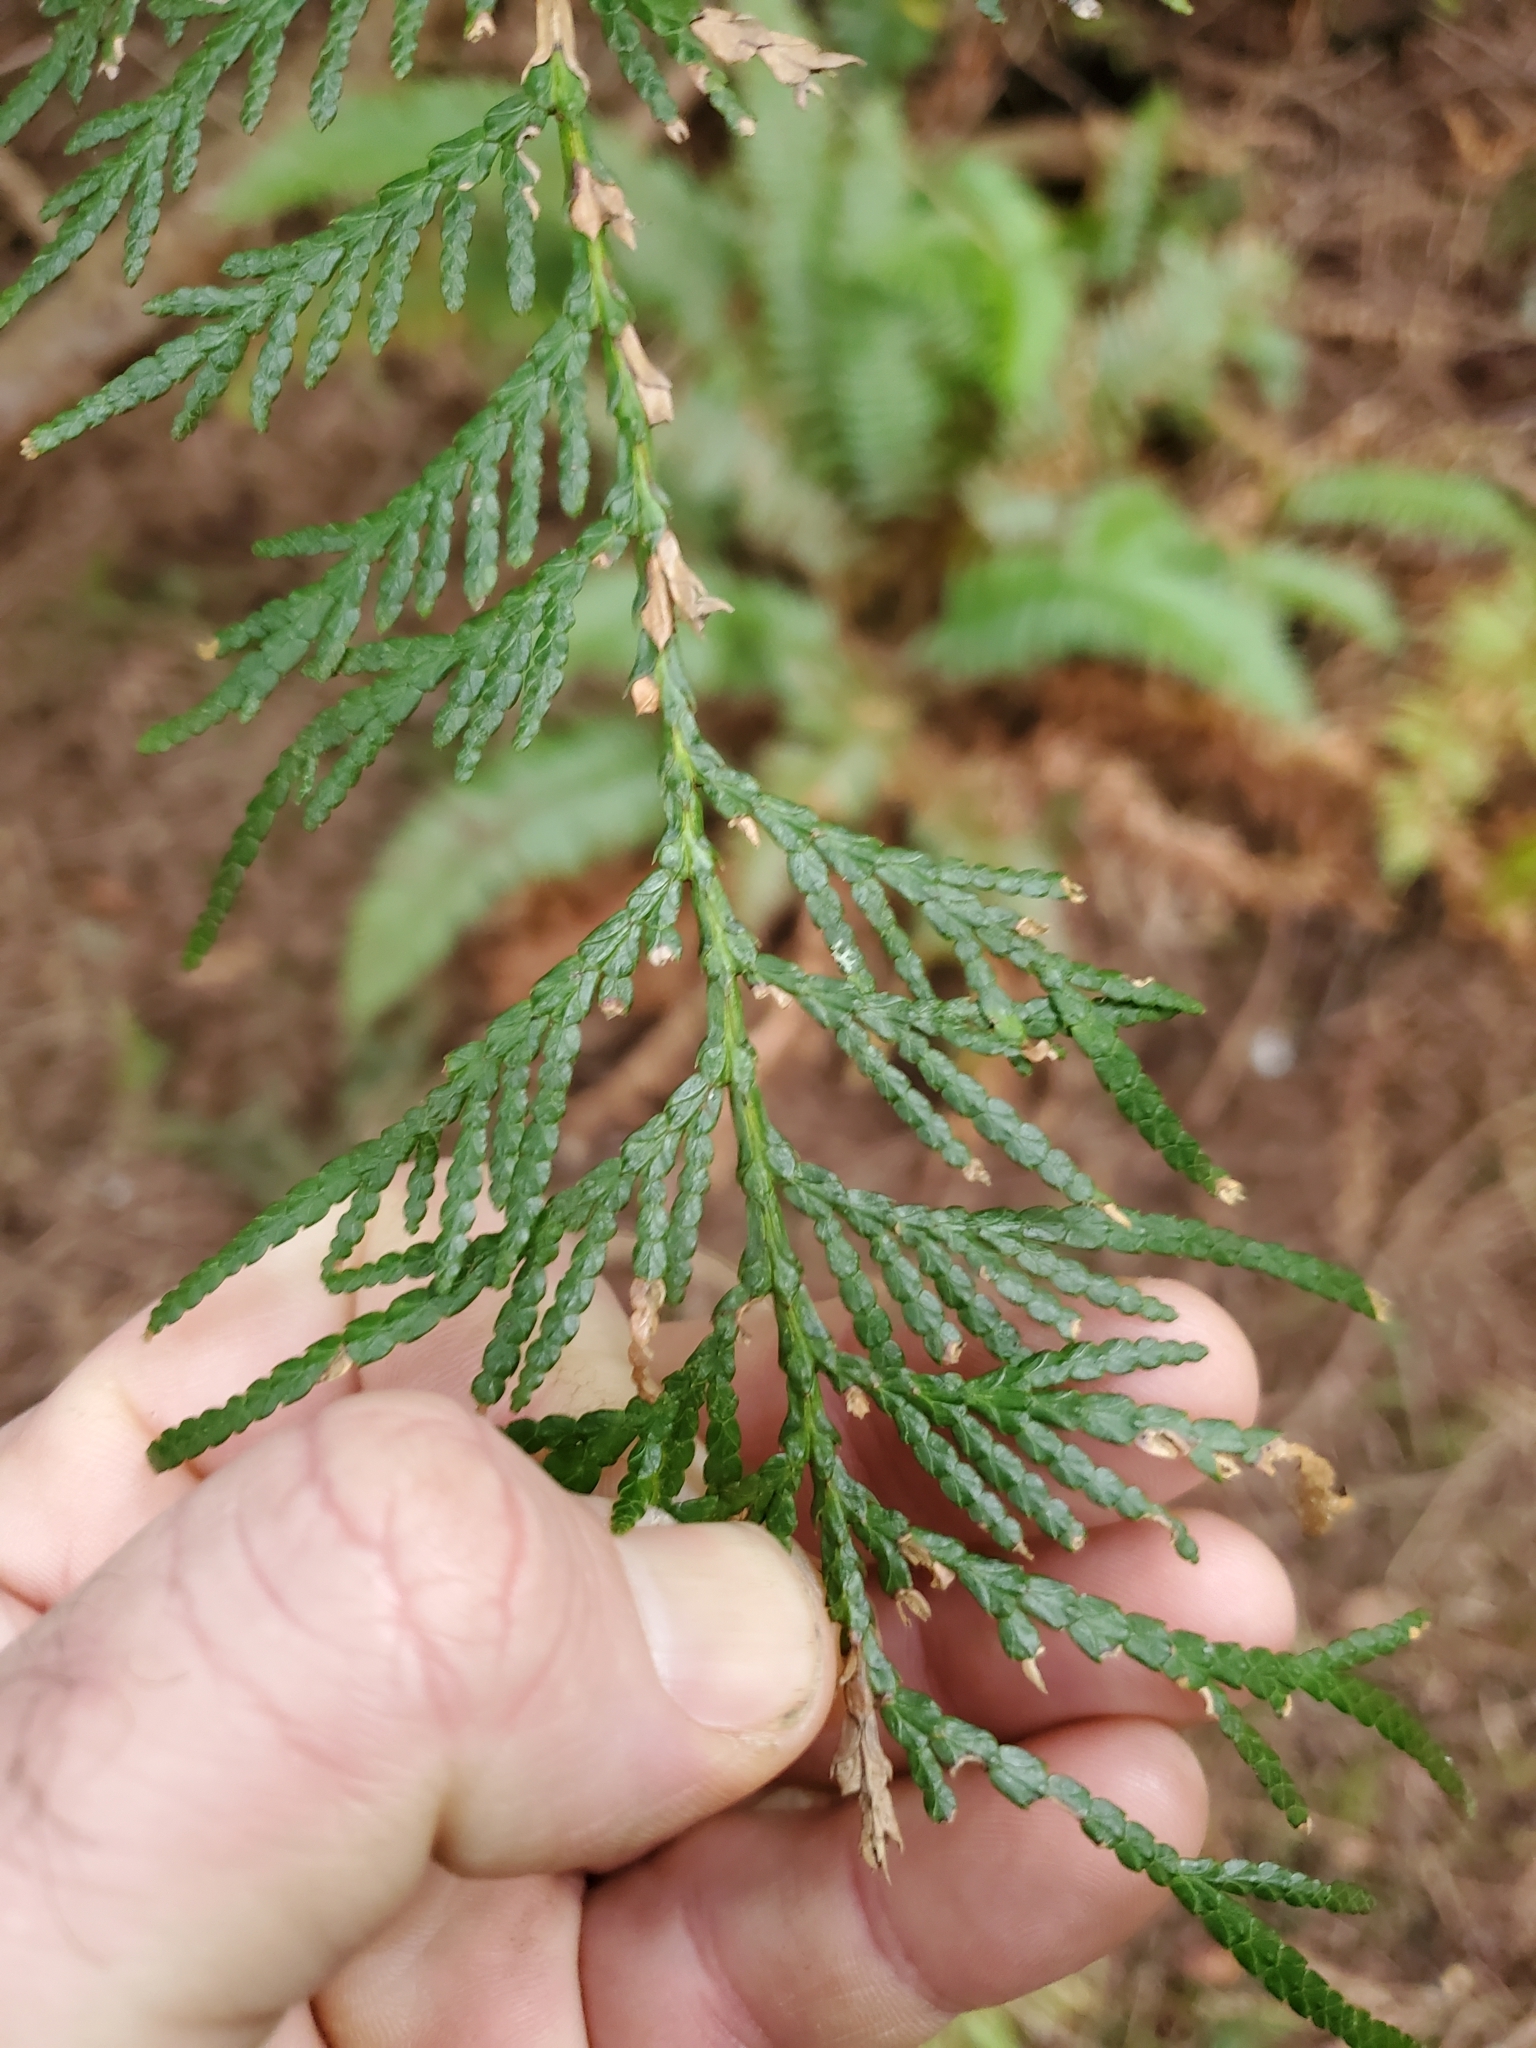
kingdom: Plantae
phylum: Tracheophyta
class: Pinopsida
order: Pinales
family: Cupressaceae
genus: Thuja
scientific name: Thuja plicata
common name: Western red-cedar
